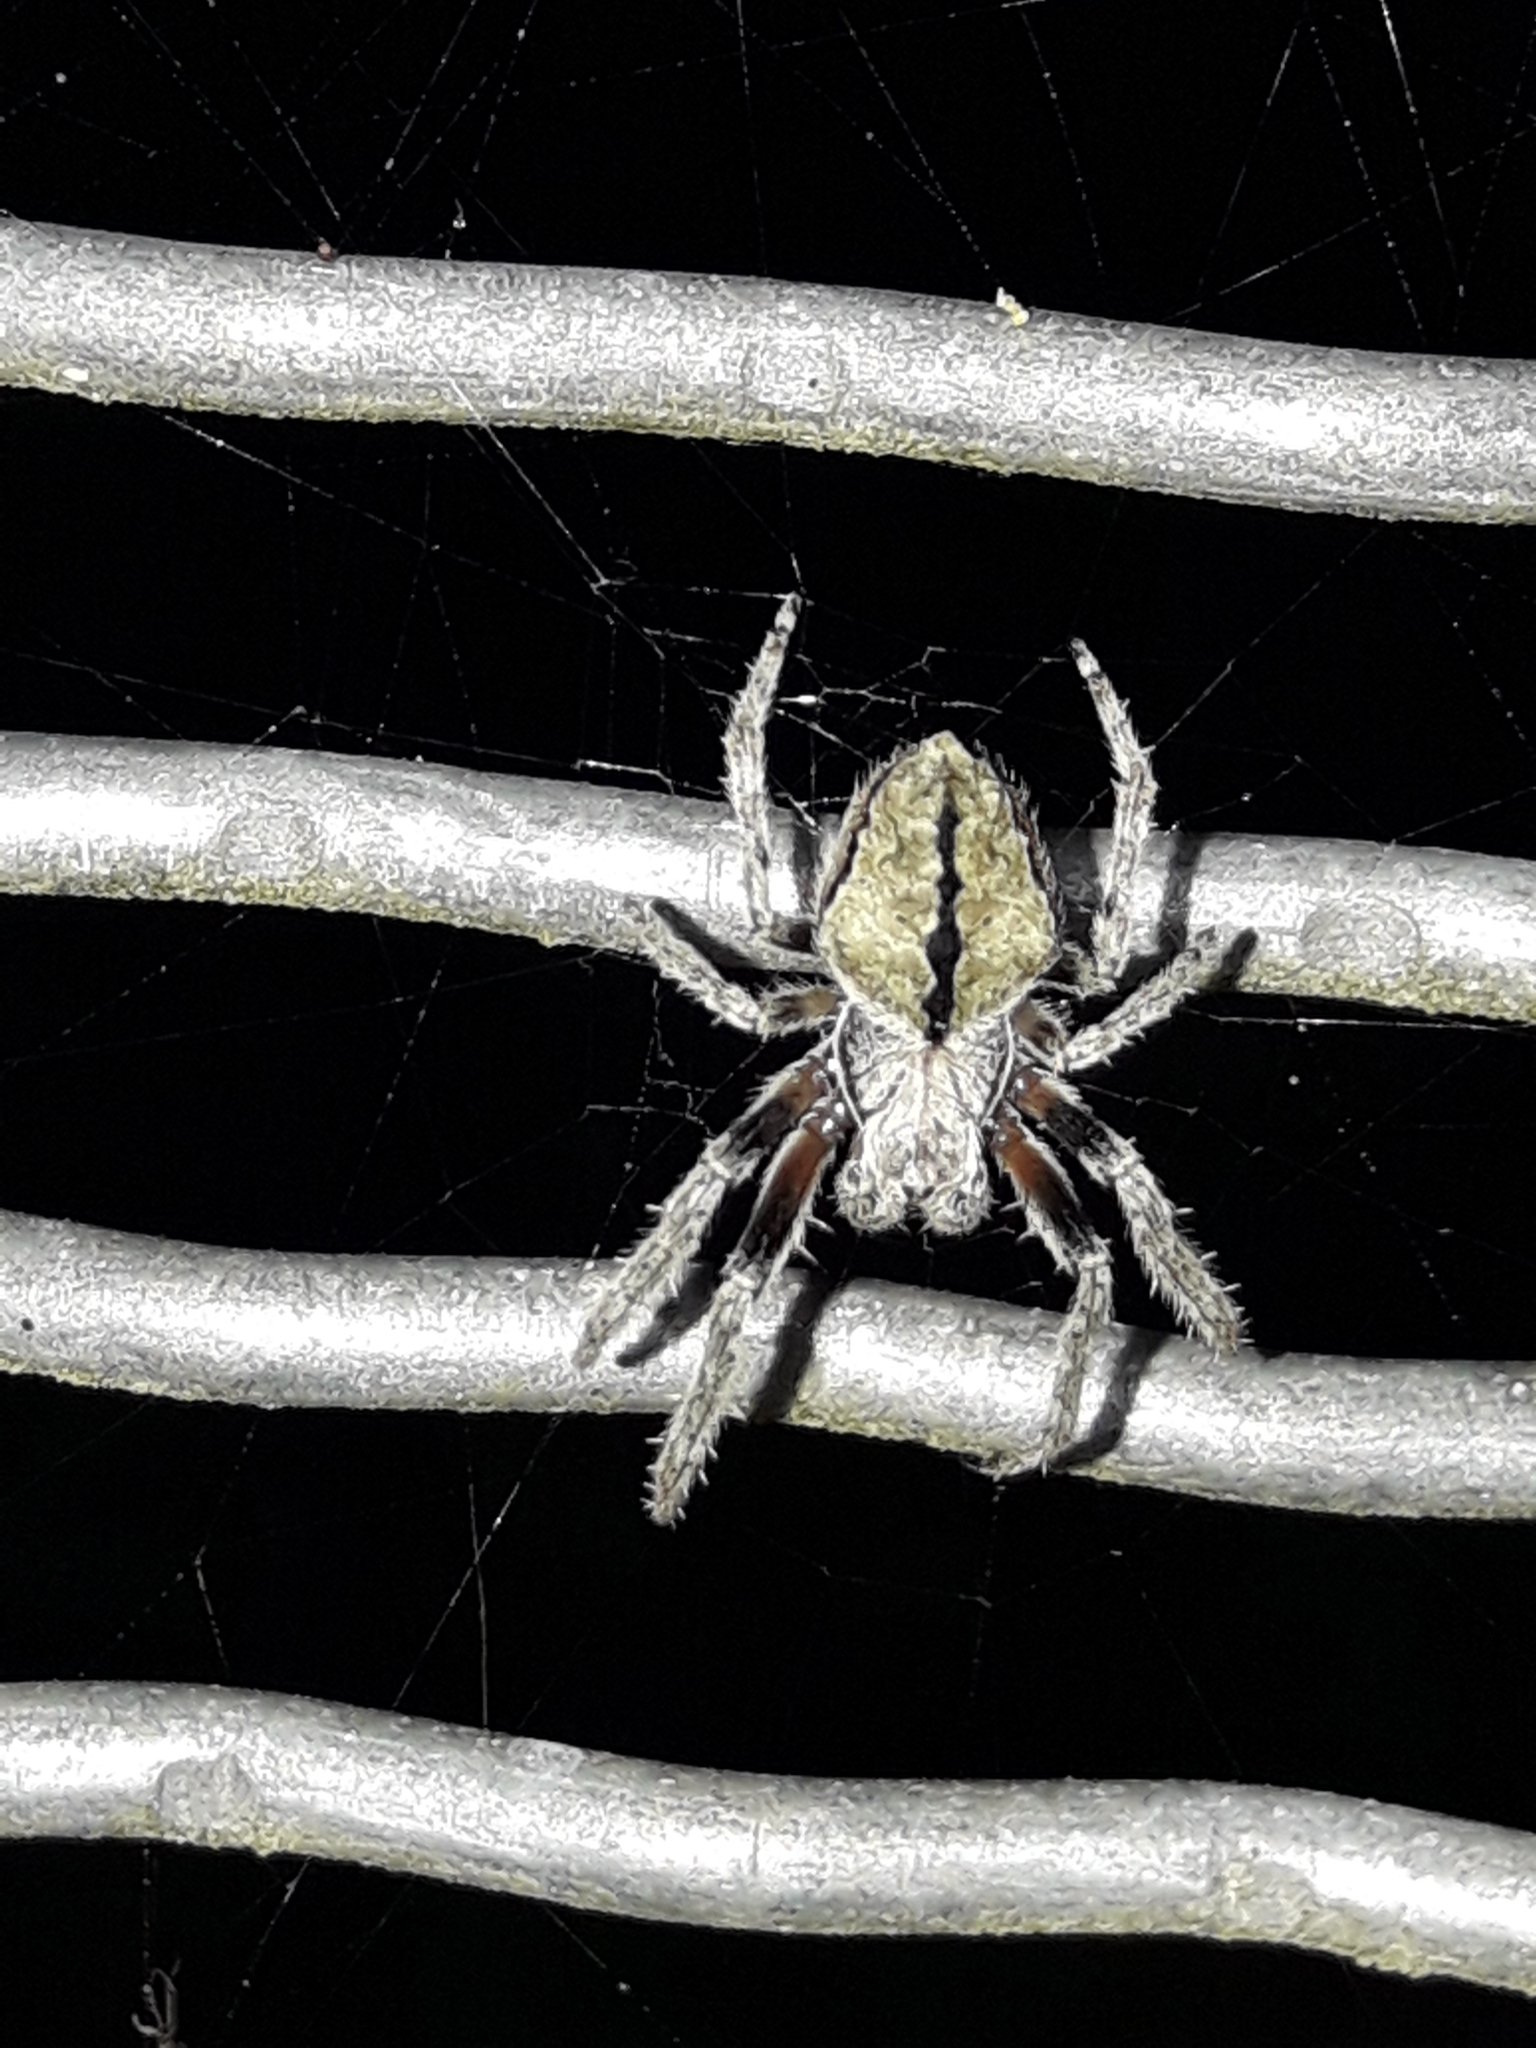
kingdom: Animalia
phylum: Arthropoda
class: Arachnida
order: Araneae
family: Araneidae
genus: Eriophora
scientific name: Eriophora pustulosa
